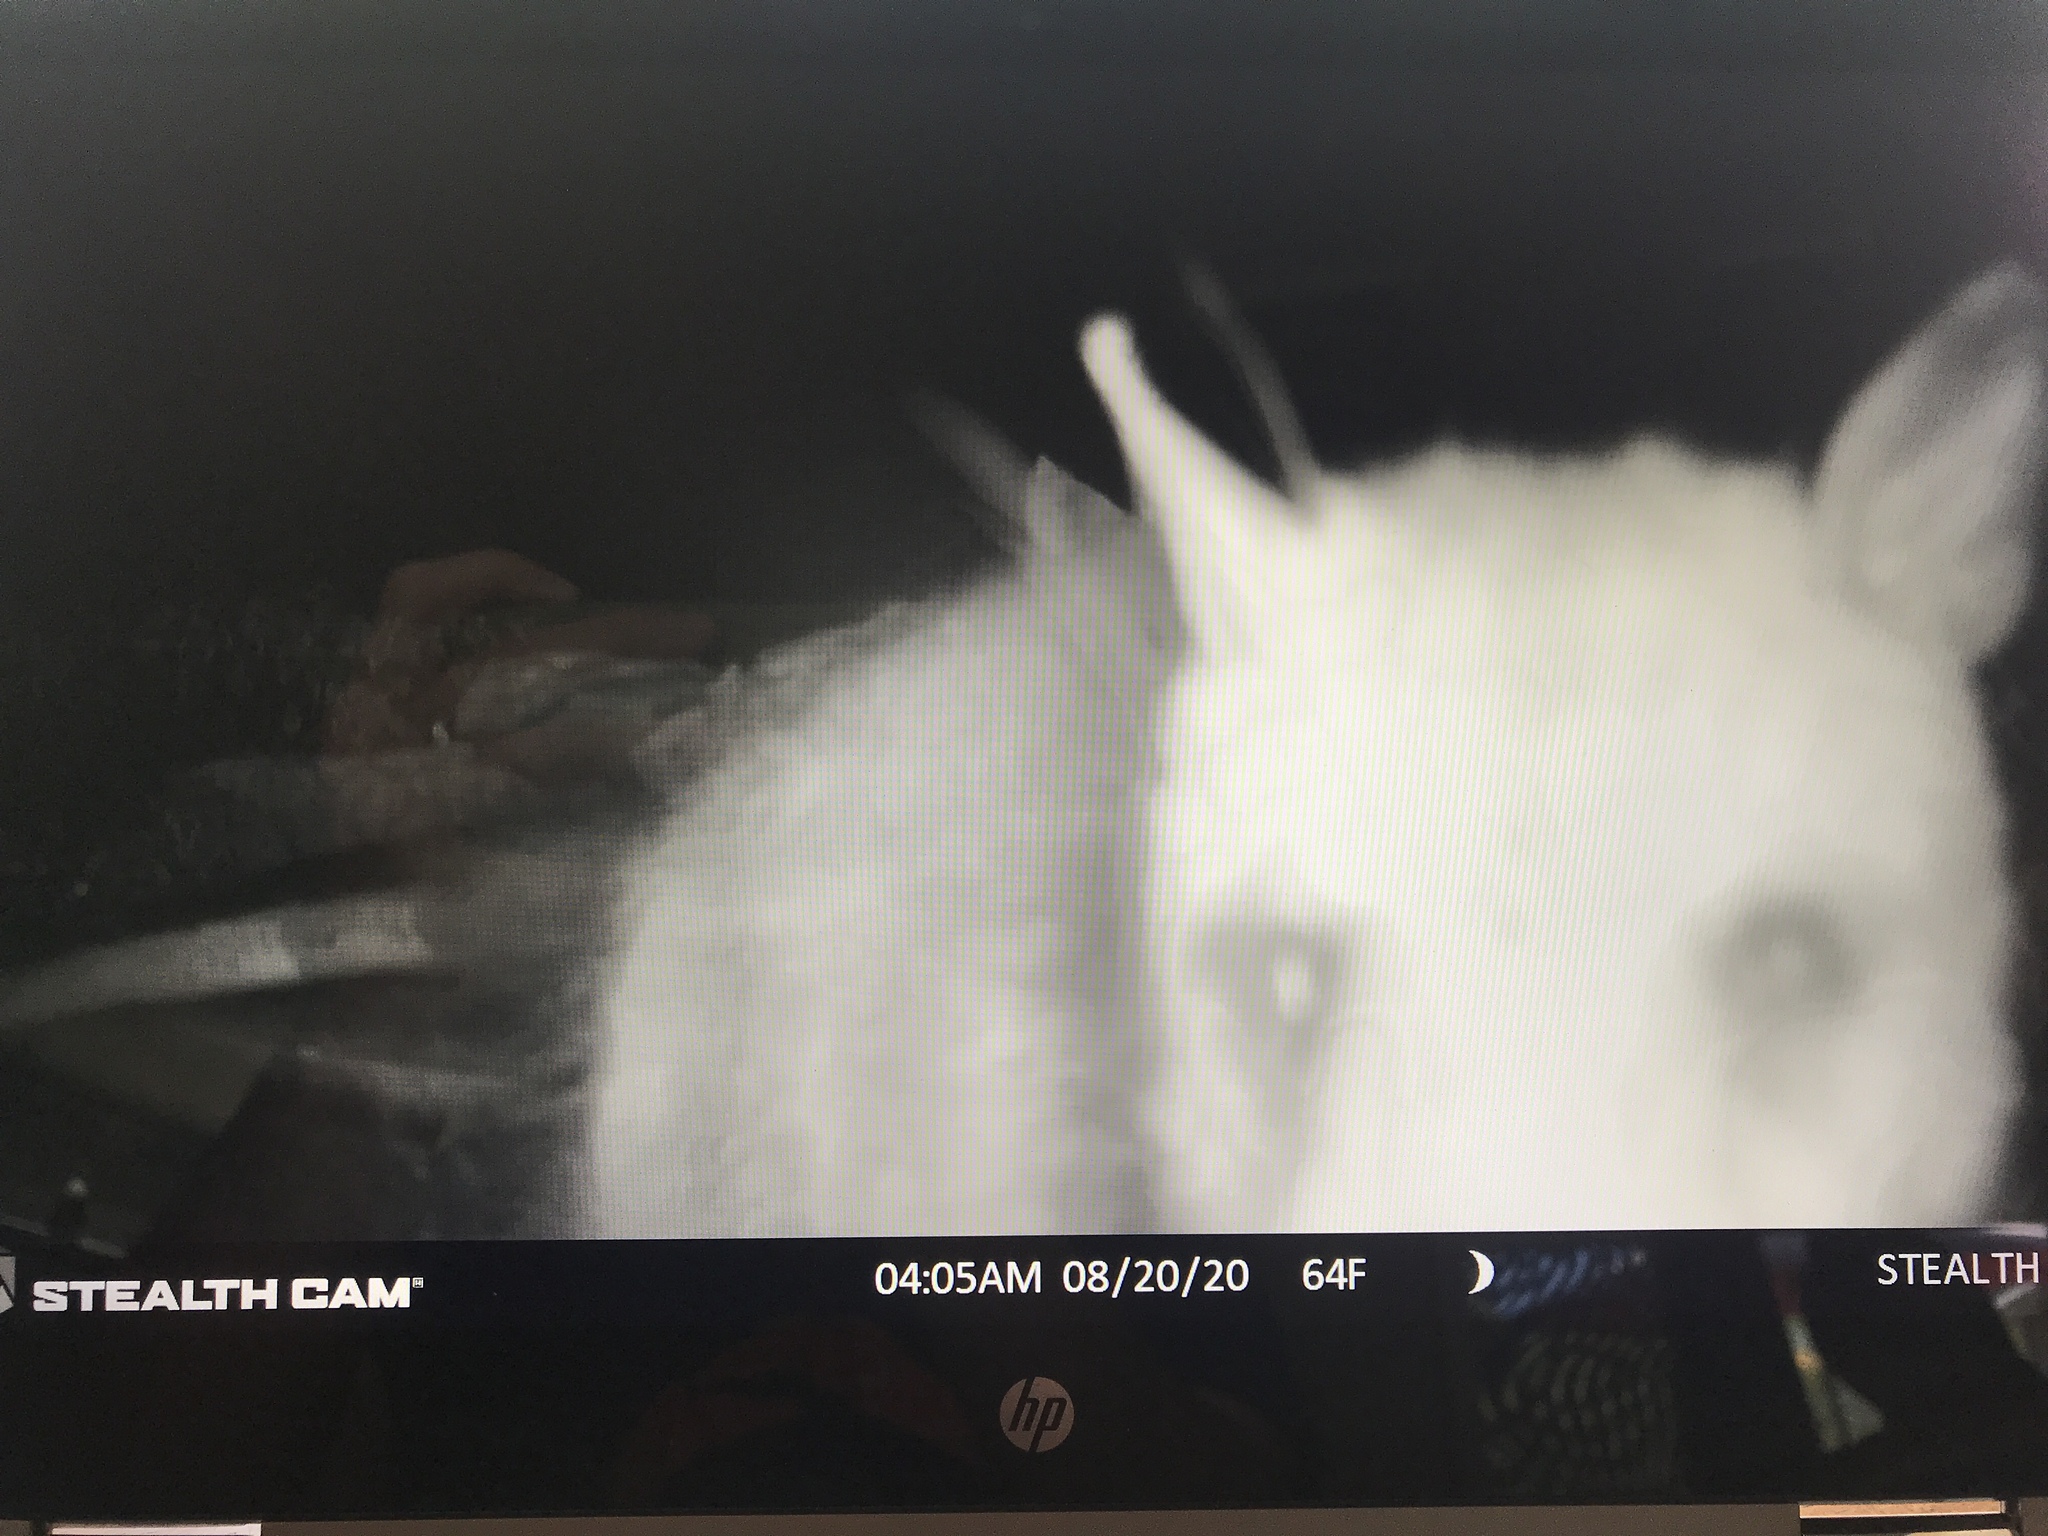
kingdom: Animalia
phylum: Chordata
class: Mammalia
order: Didelphimorphia
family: Didelphidae
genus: Didelphis
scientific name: Didelphis virginiana
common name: Virginia opossum
